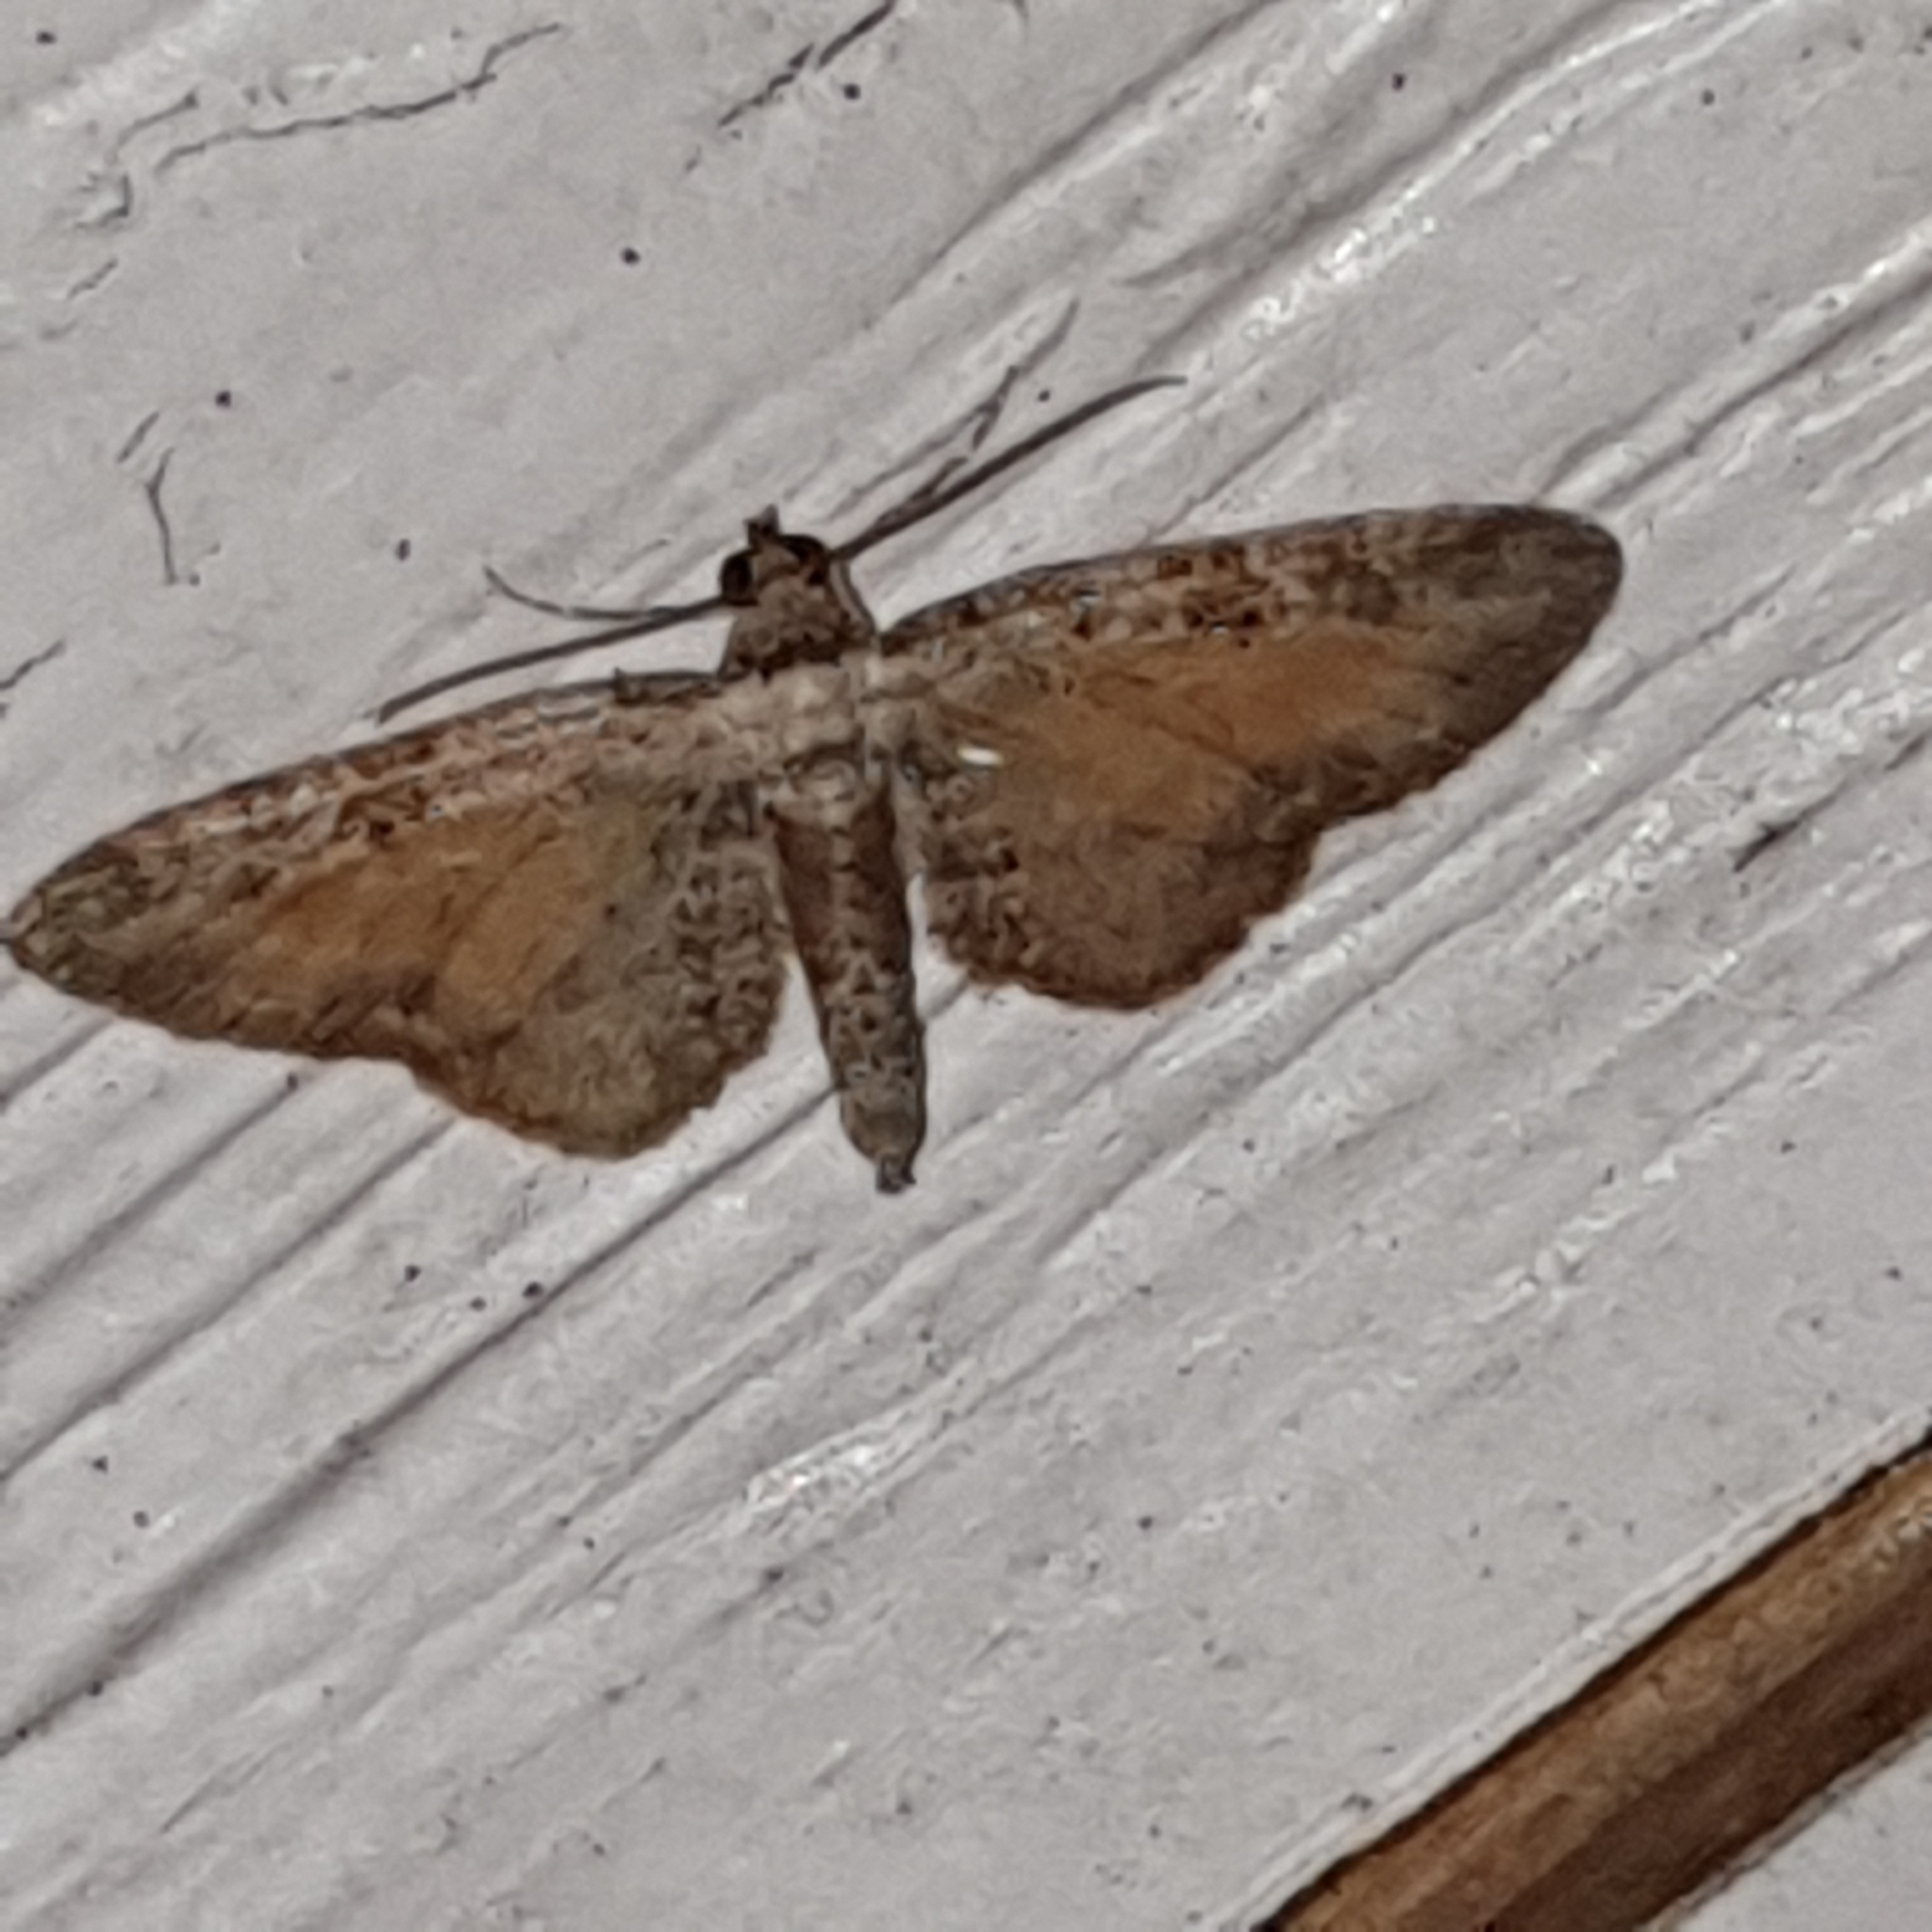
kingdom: Animalia
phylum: Arthropoda
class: Insecta
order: Lepidoptera
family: Geometridae
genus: Eupithecia
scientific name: Eupithecia icterata
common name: Tawny speckled pug
